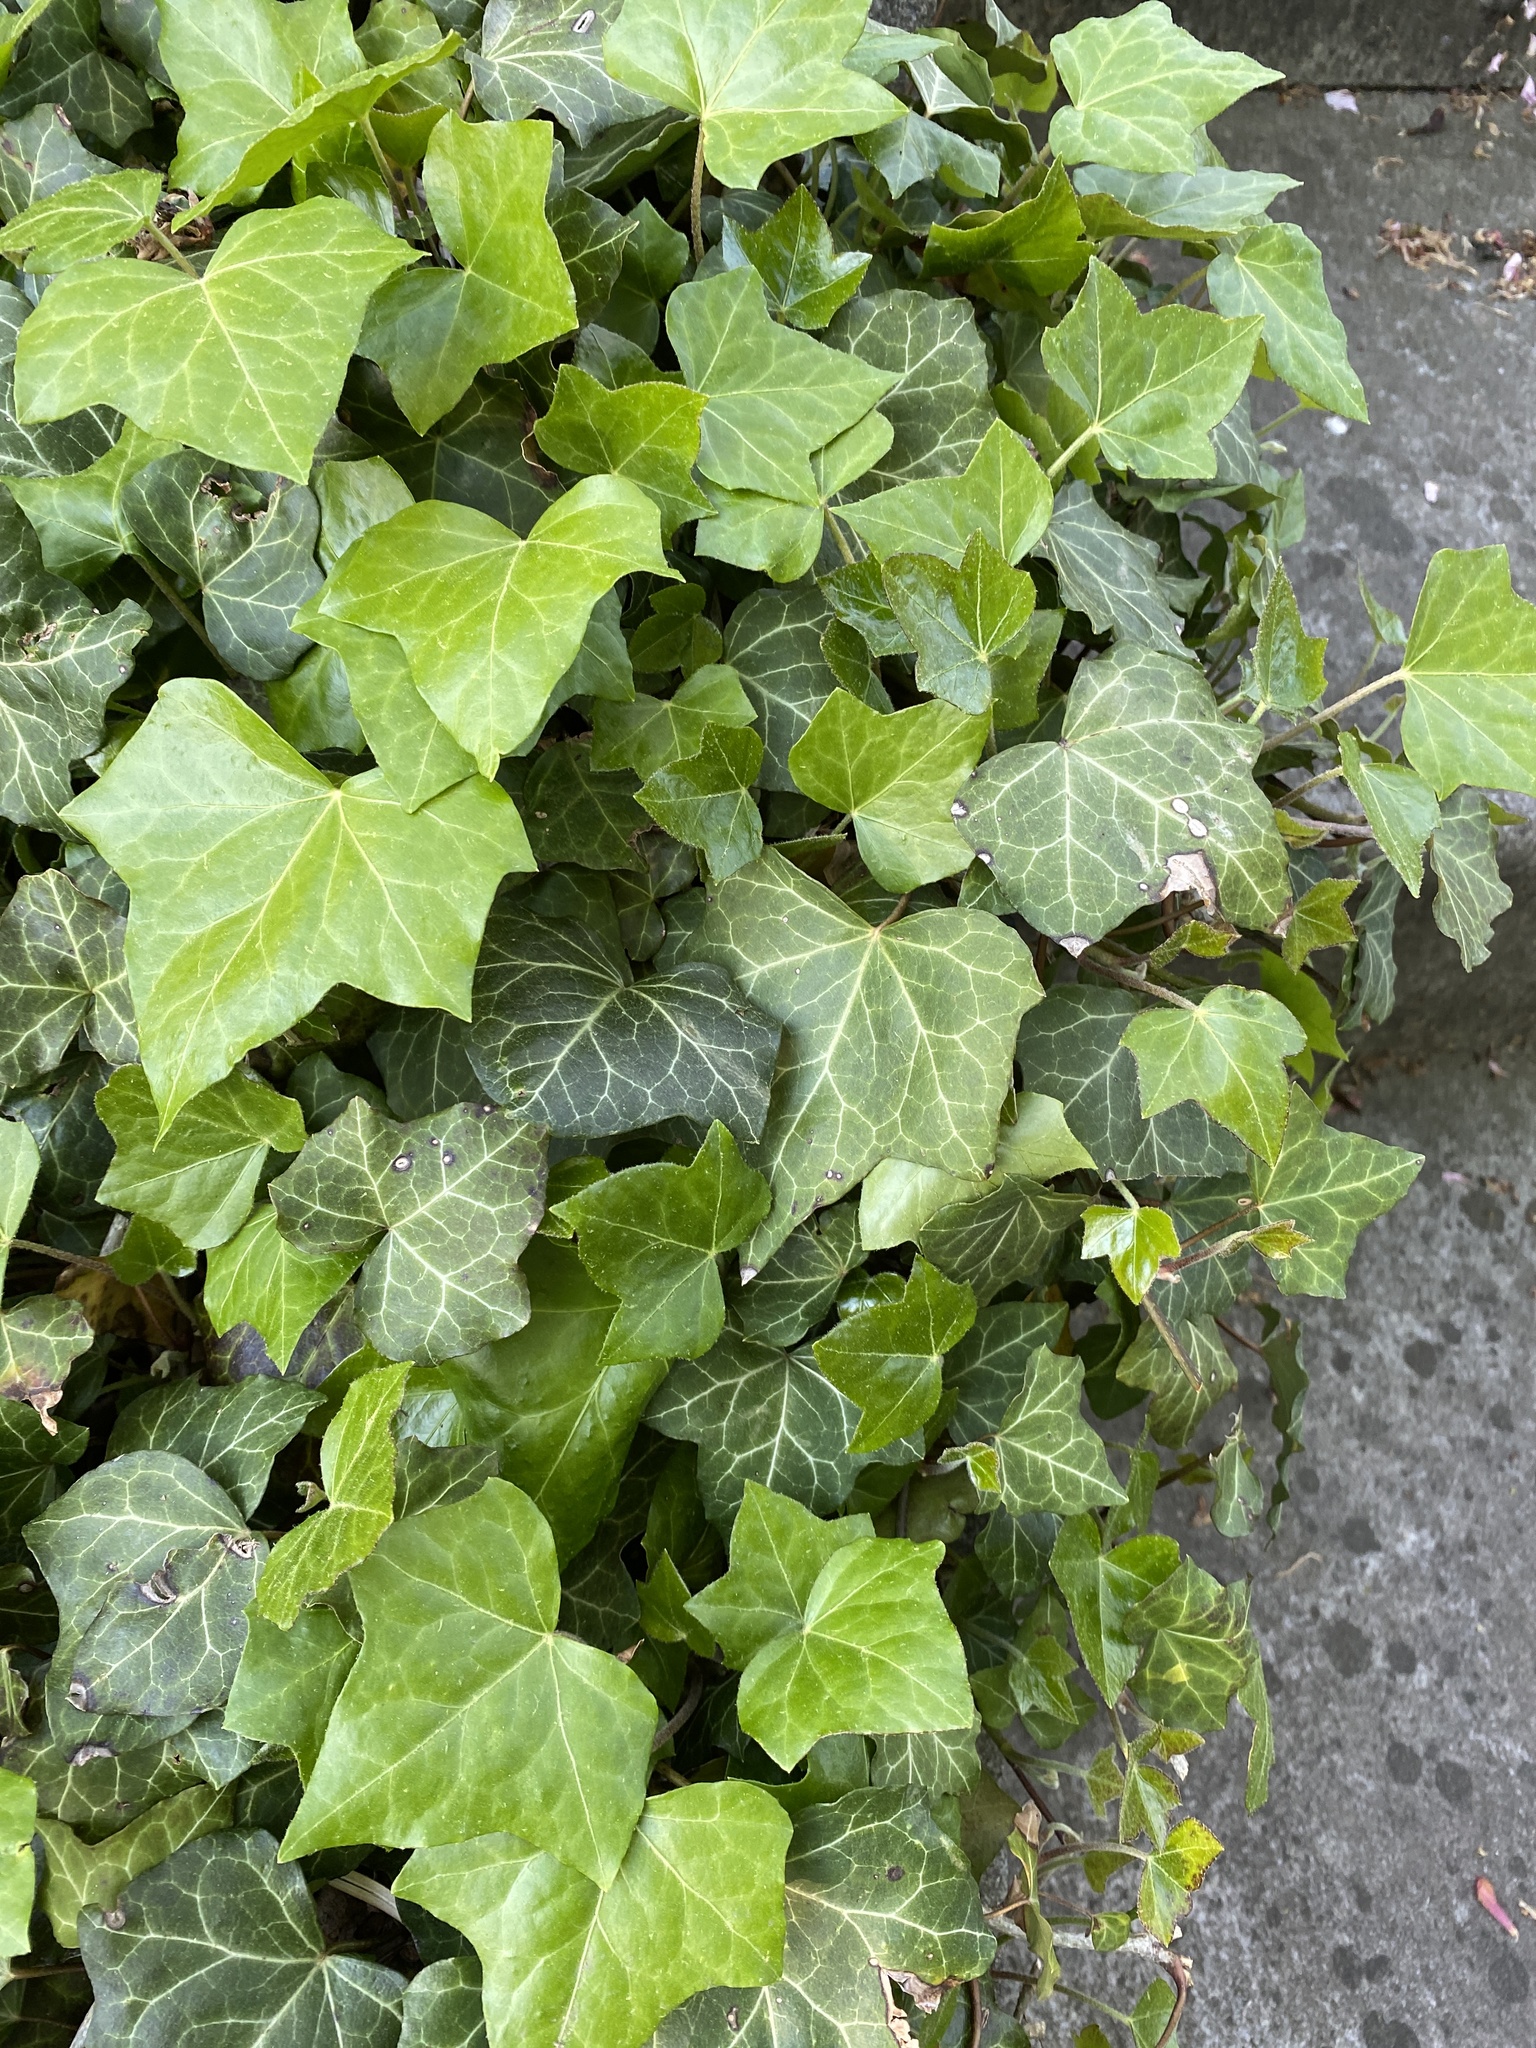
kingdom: Plantae
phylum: Tracheophyta
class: Magnoliopsida
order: Apiales
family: Araliaceae
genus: Hedera
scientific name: Hedera helix
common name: Ivy
